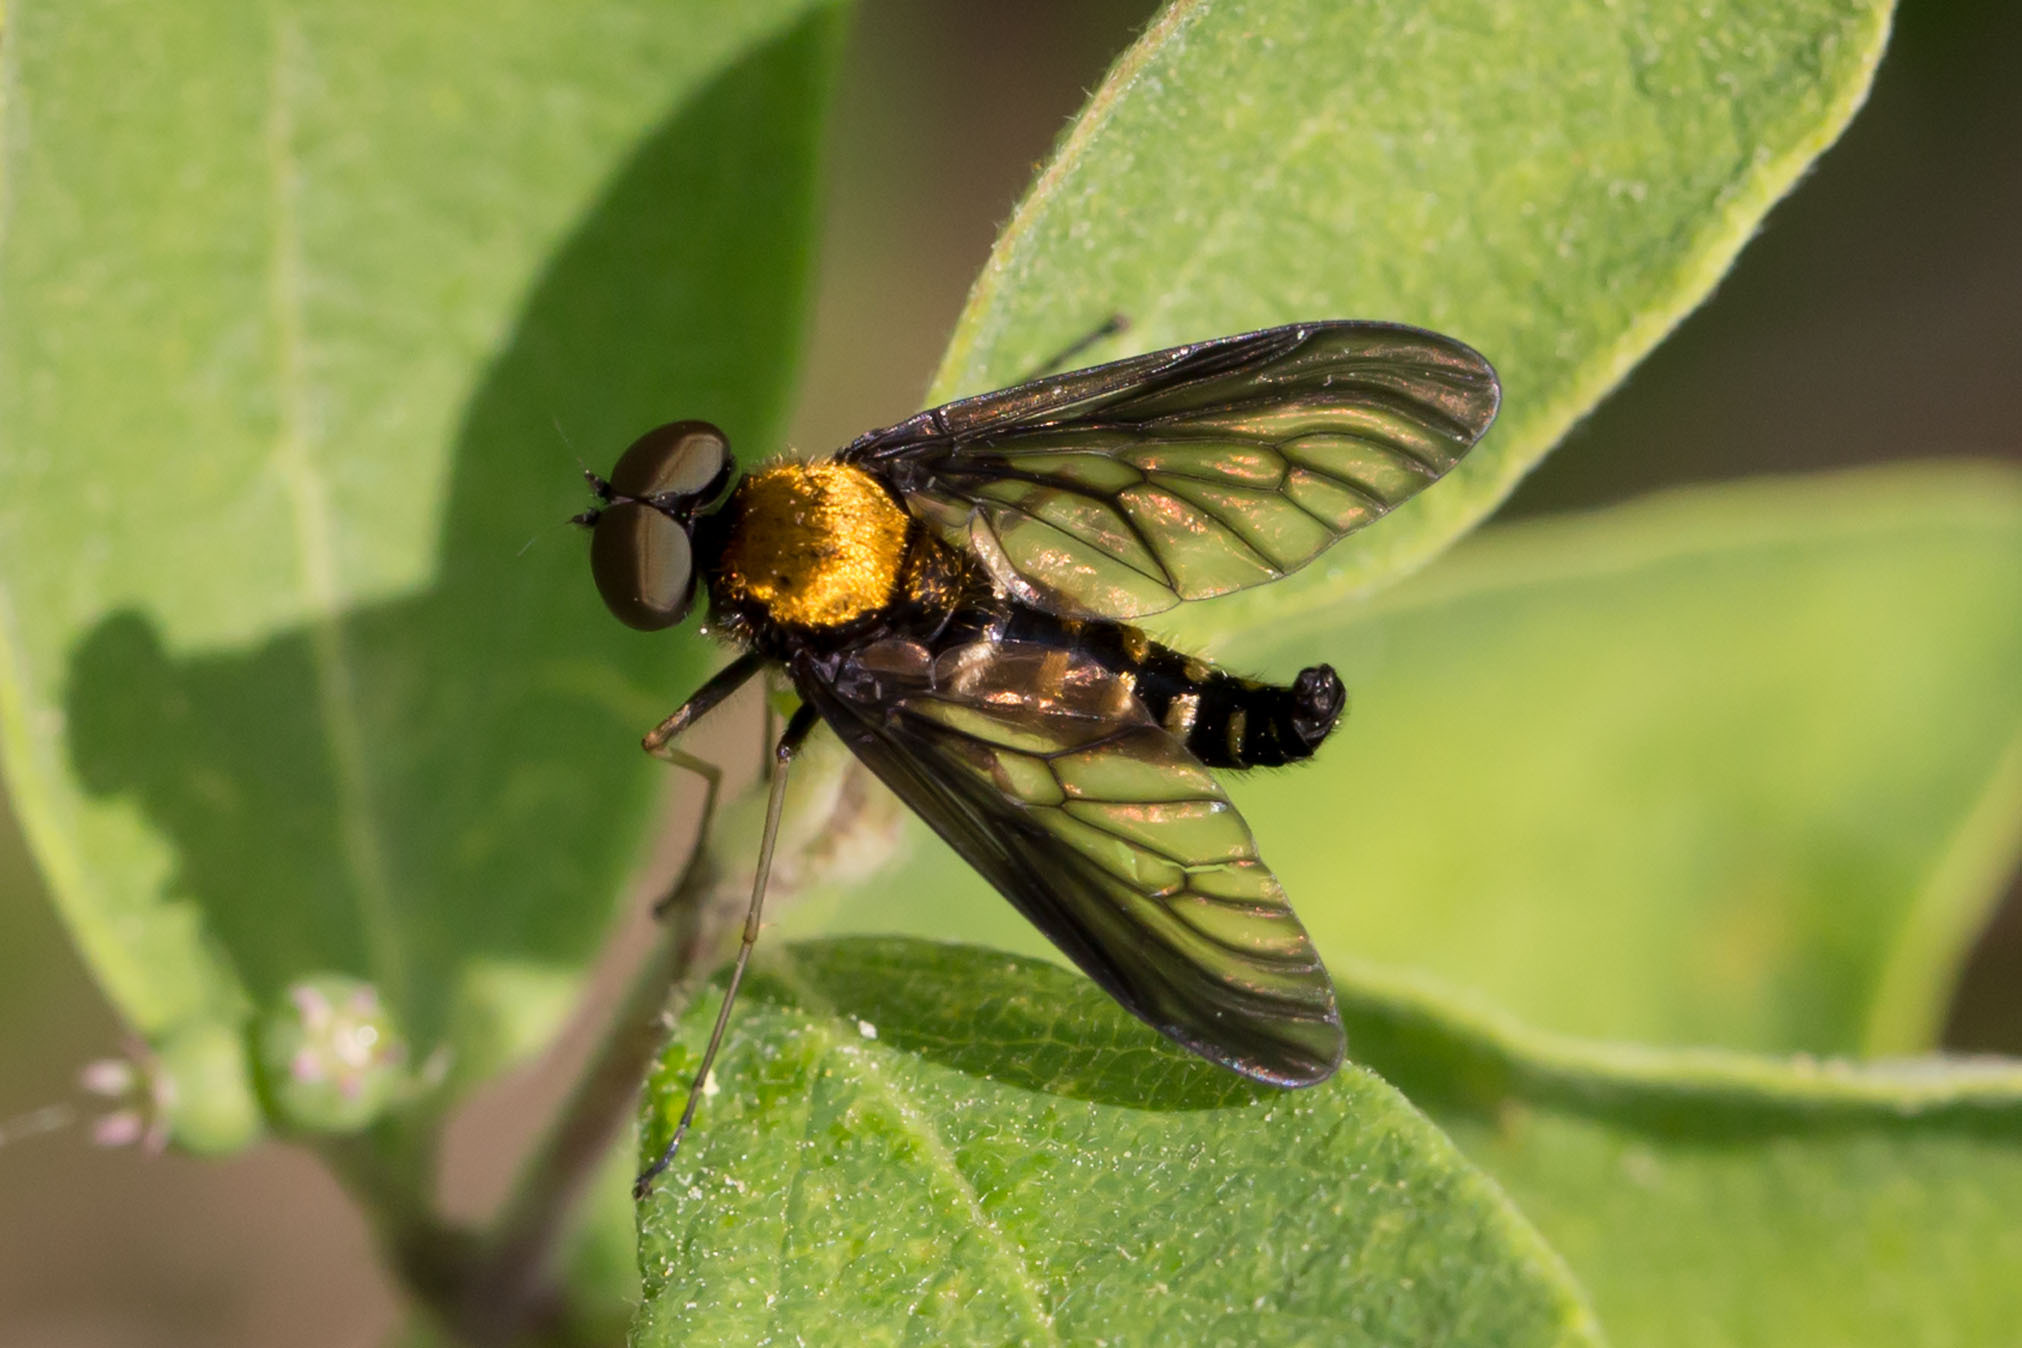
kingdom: Animalia
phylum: Arthropoda
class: Insecta
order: Diptera
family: Rhagionidae
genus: Chrysopilus
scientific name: Chrysopilus thoracicus
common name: Golden-backed snipe fly
